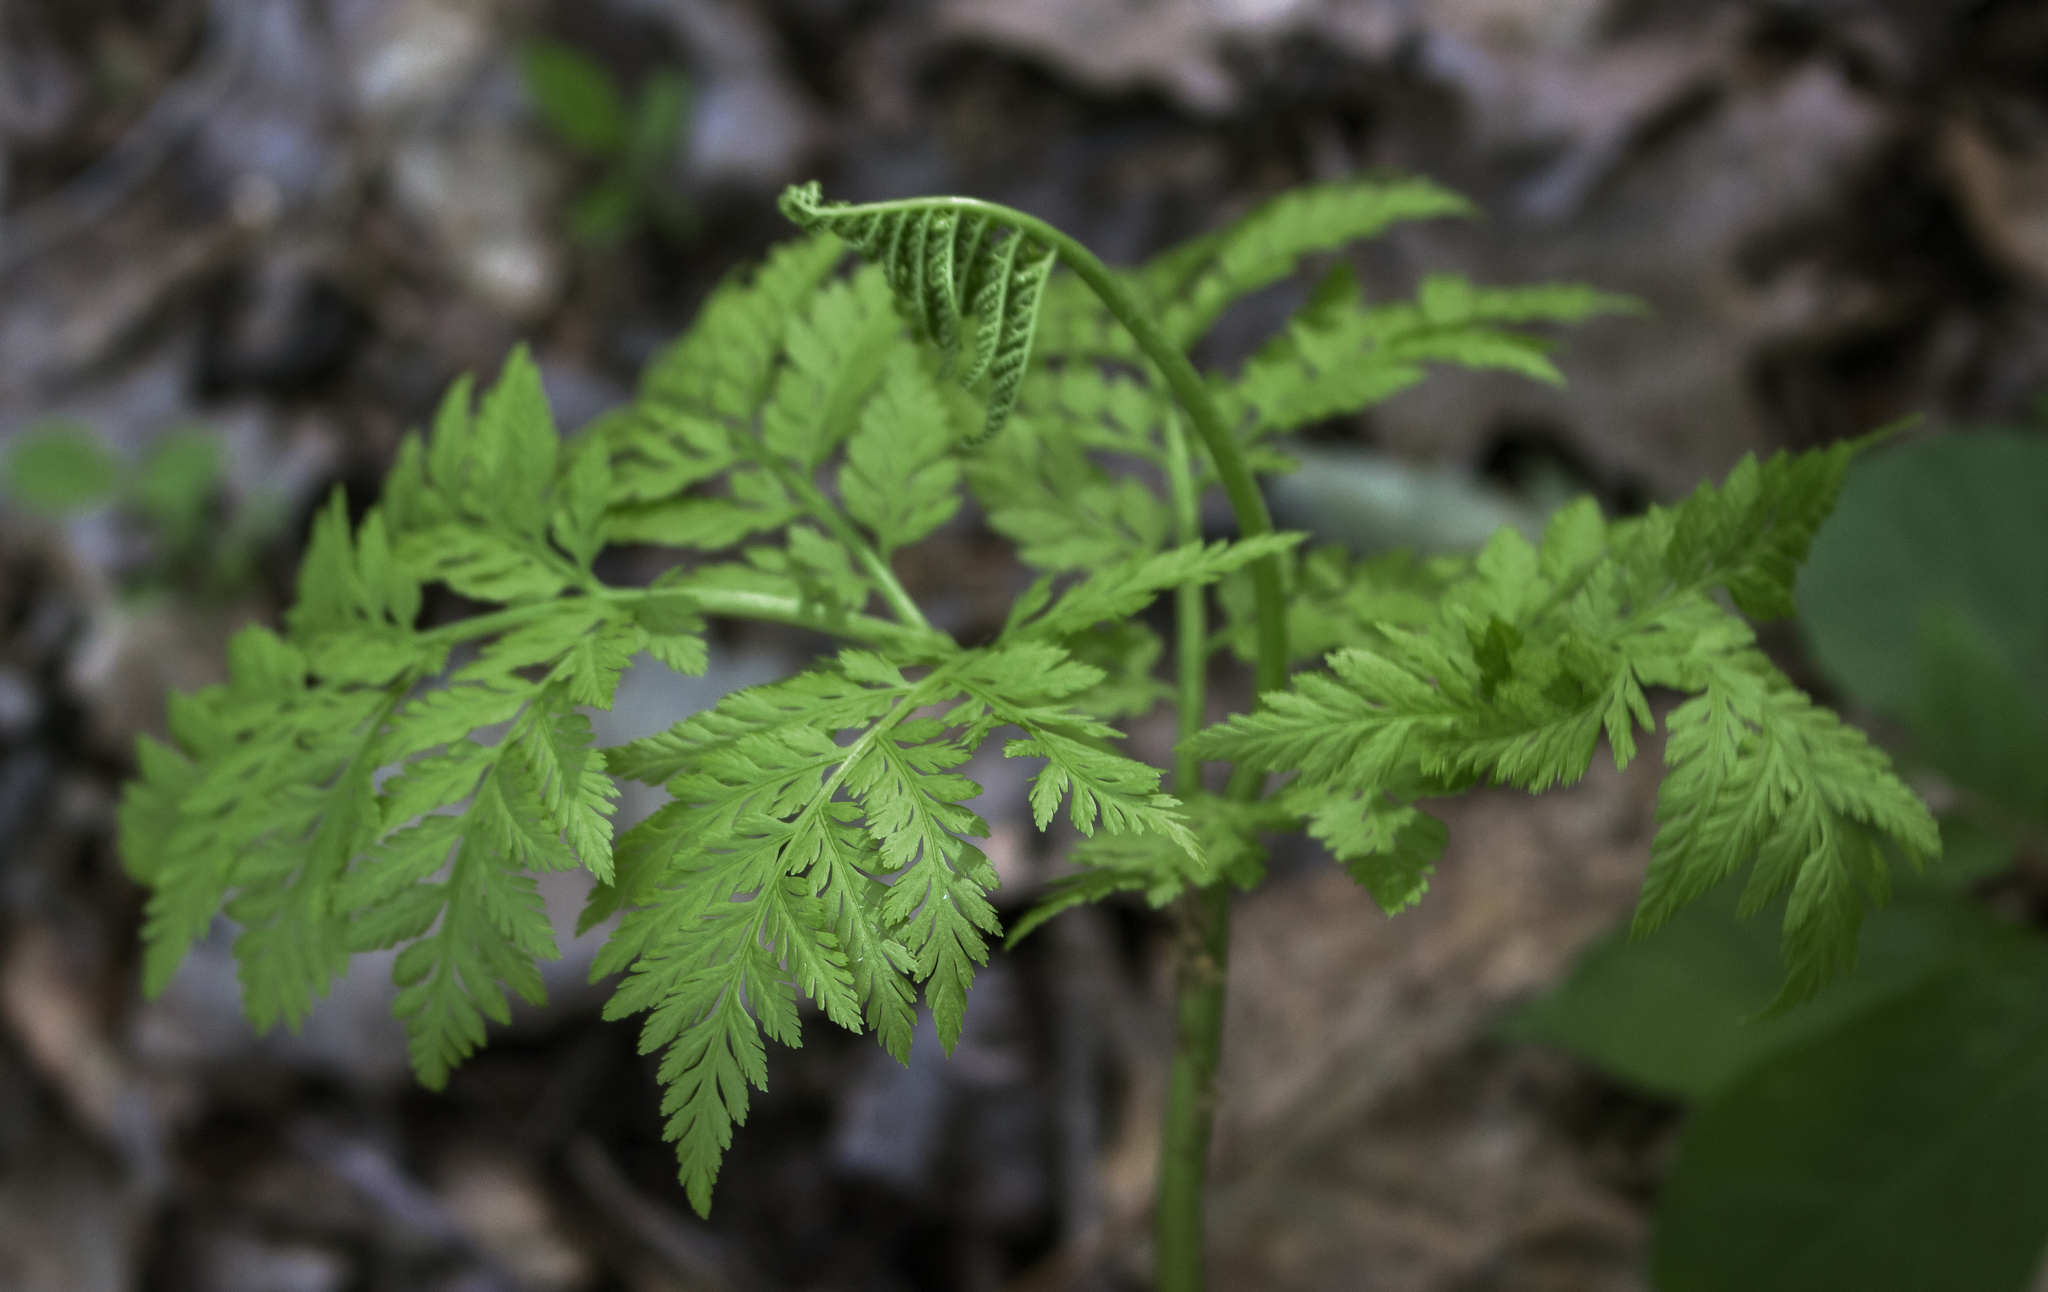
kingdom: Plantae
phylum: Tracheophyta
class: Polypodiopsida
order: Ophioglossales
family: Ophioglossaceae
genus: Botrypus
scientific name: Botrypus virginianus
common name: Common grapefern
